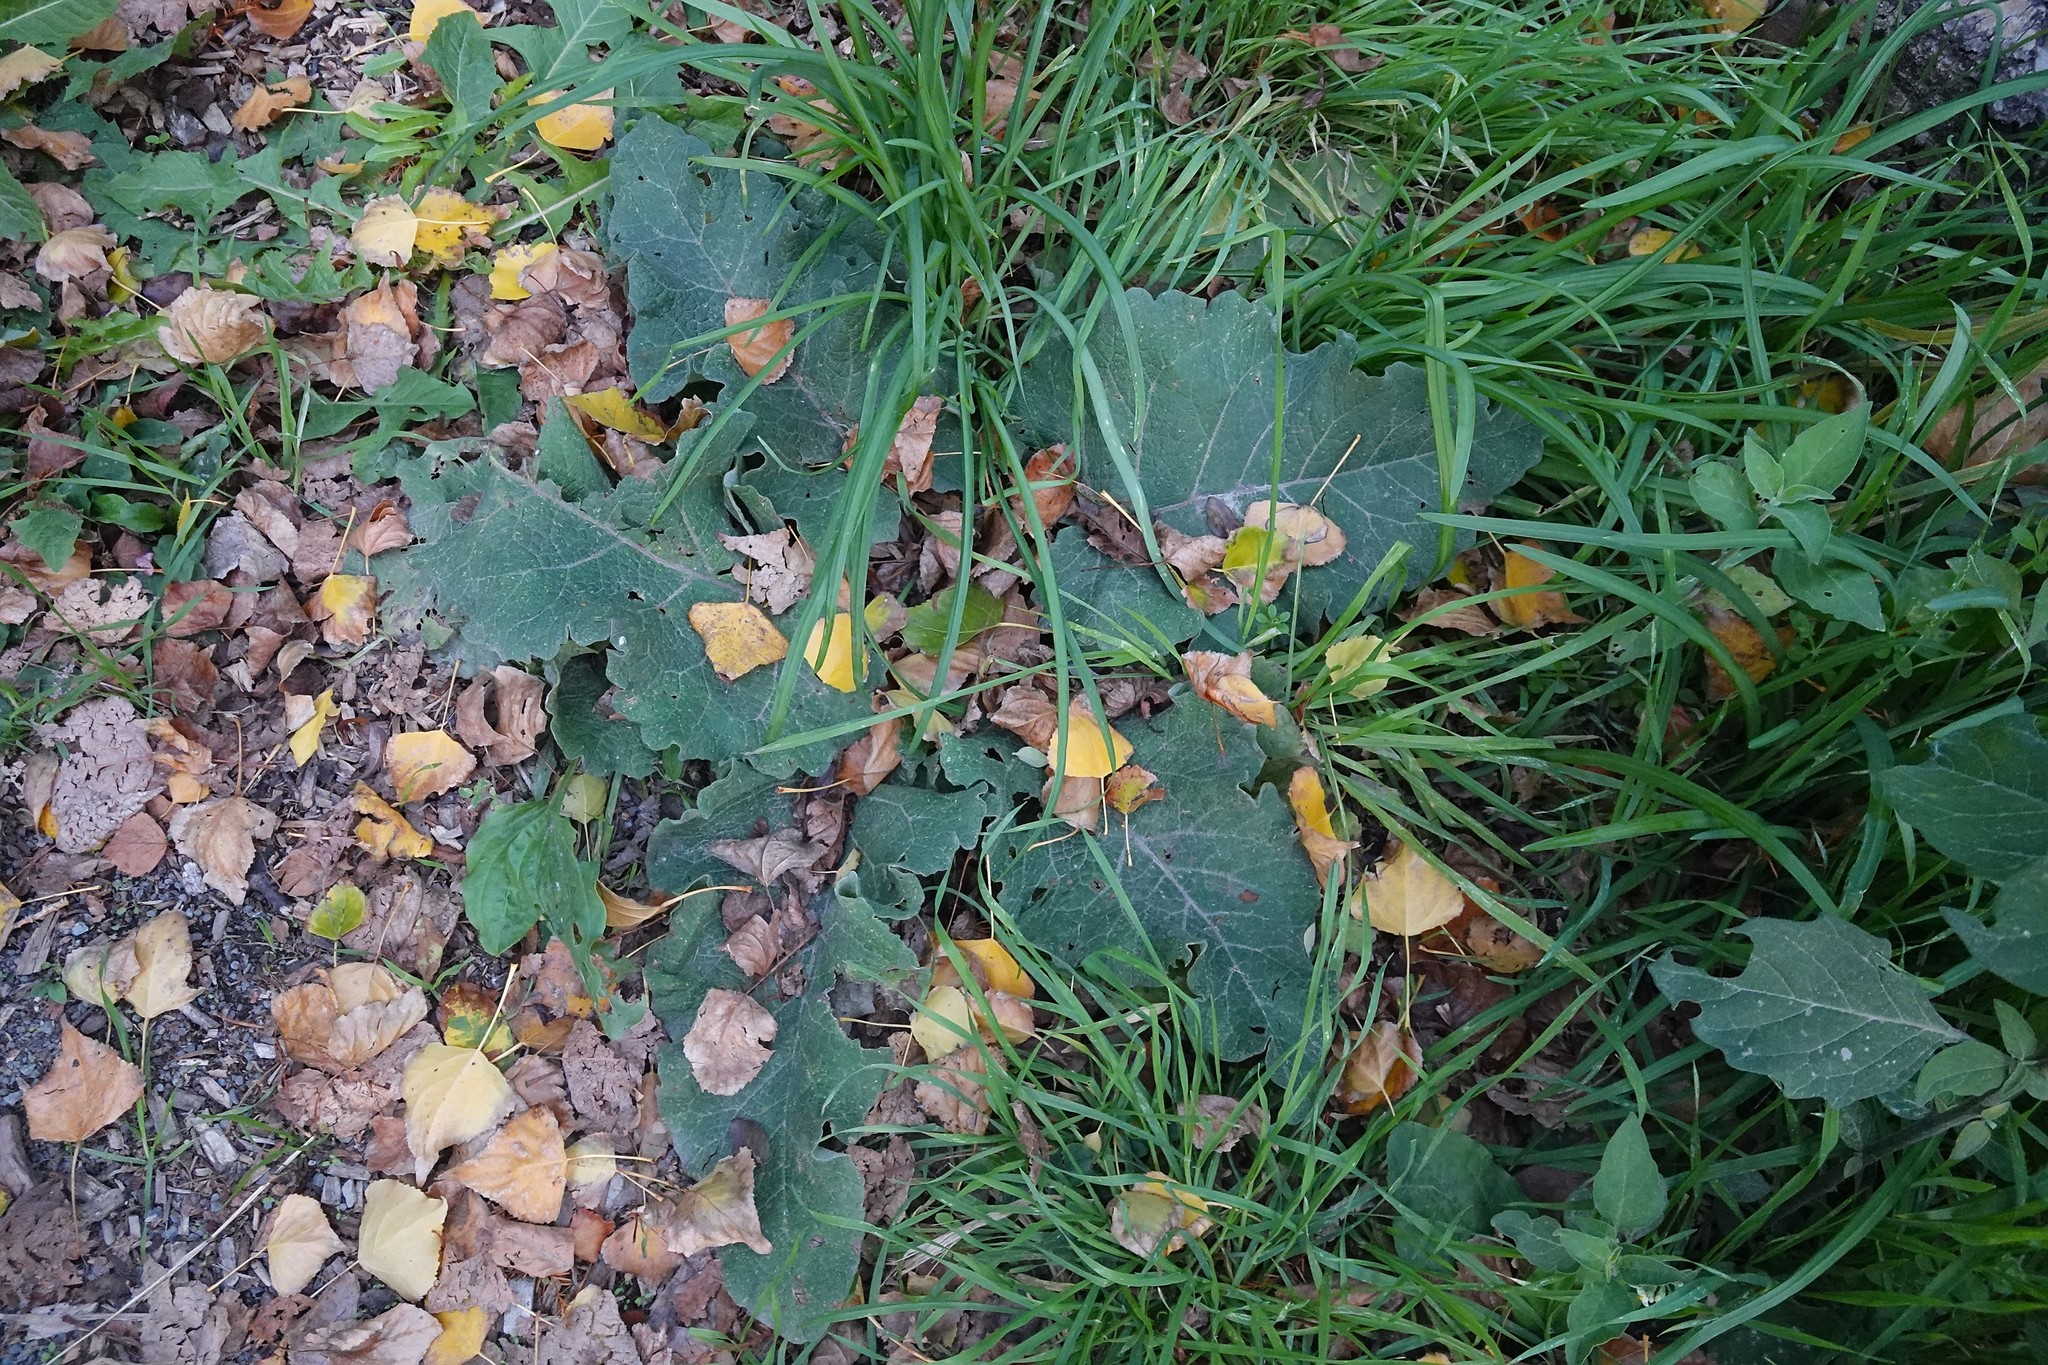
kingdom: Plantae
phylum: Tracheophyta
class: Magnoliopsida
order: Asterales
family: Asteraceae
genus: Arctium
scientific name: Arctium minus
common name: Lesser burdock
